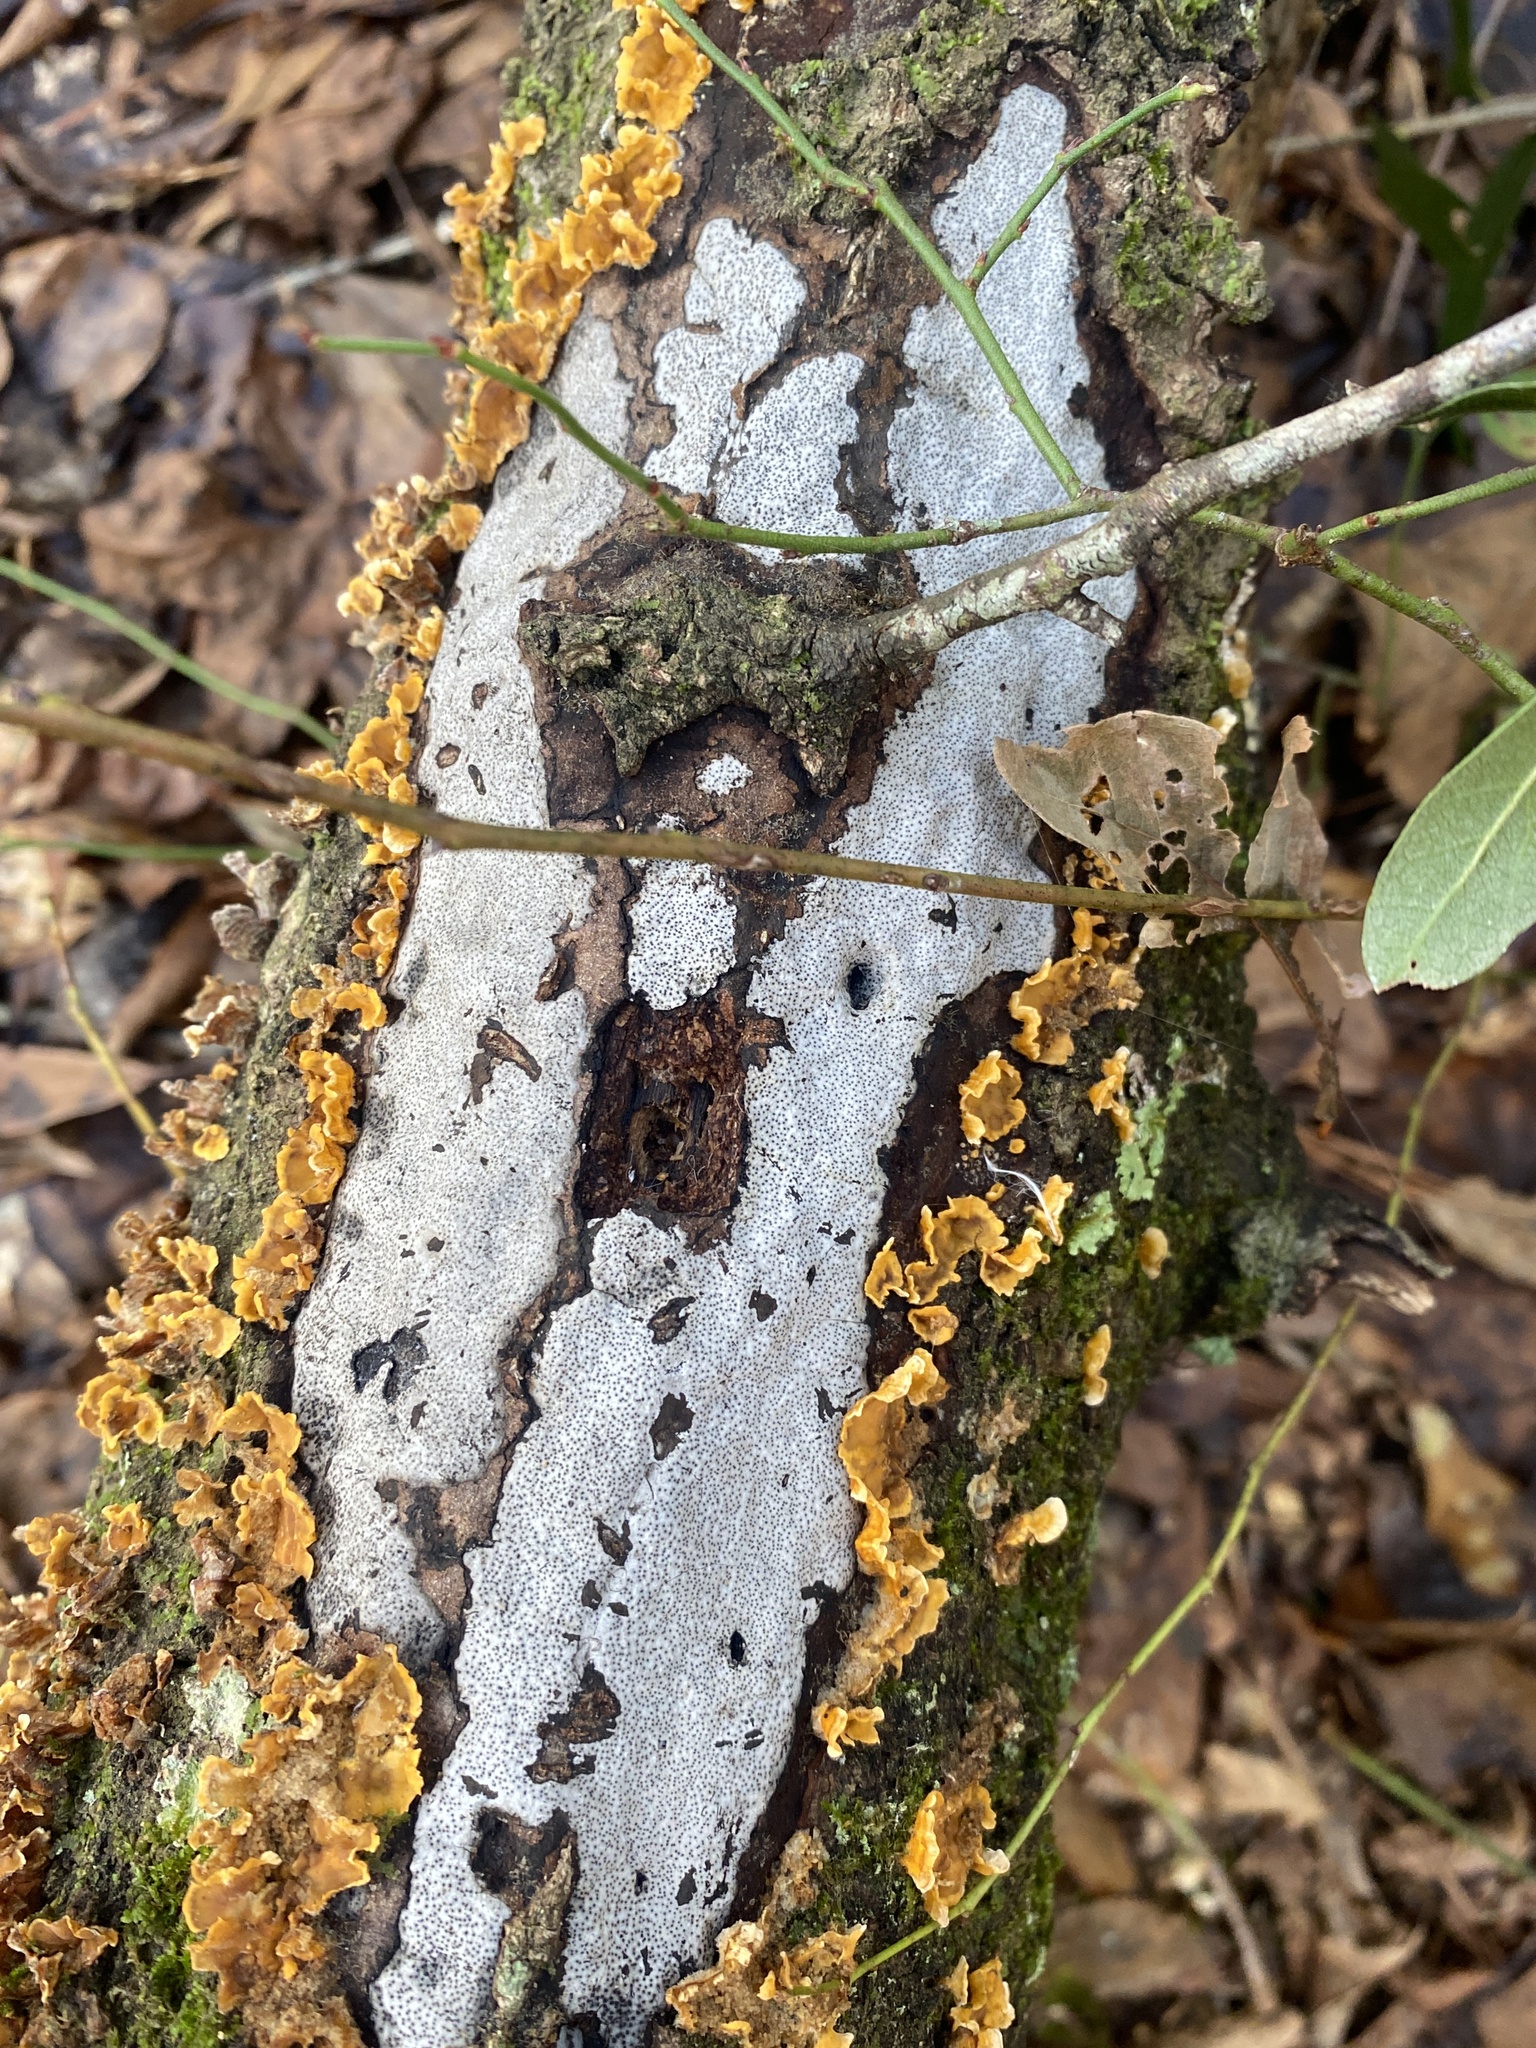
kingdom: Fungi
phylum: Ascomycota
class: Sordariomycetes
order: Xylariales
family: Graphostromataceae
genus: Biscogniauxia
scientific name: Biscogniauxia atropunctata
